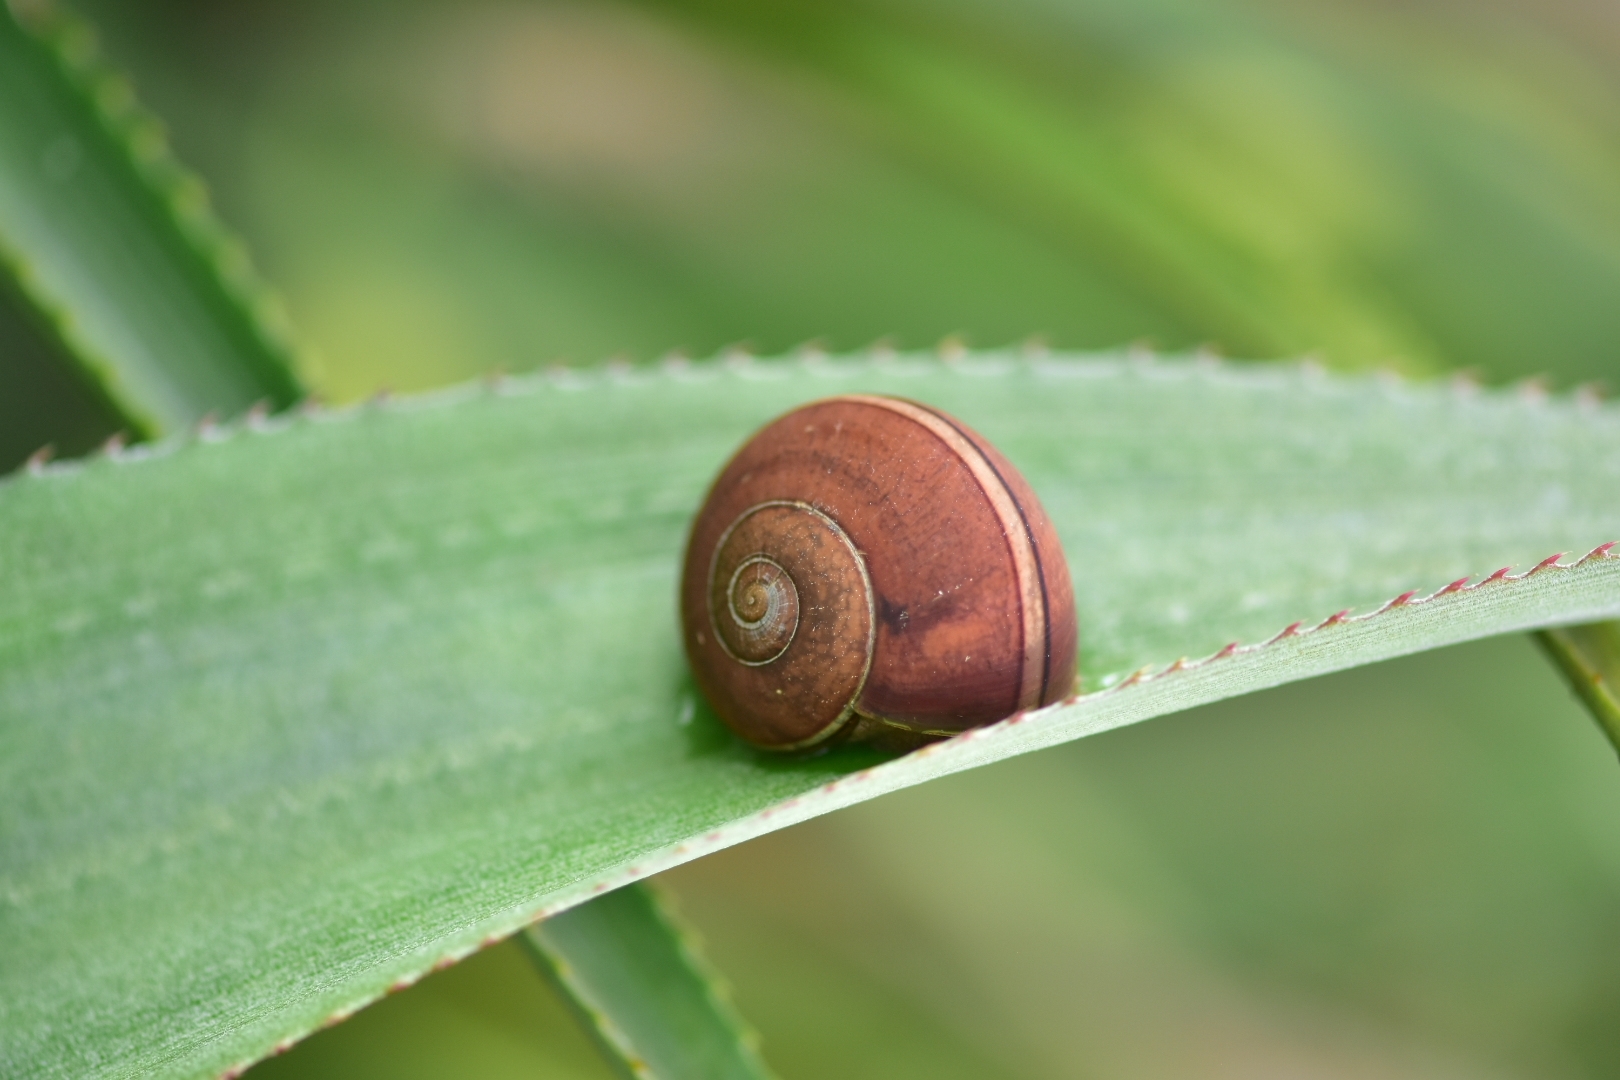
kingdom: Animalia
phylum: Mollusca
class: Gastropoda
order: Stylommatophora
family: Ariophantidae
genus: Ariophanta
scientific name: Ariophanta exilis
